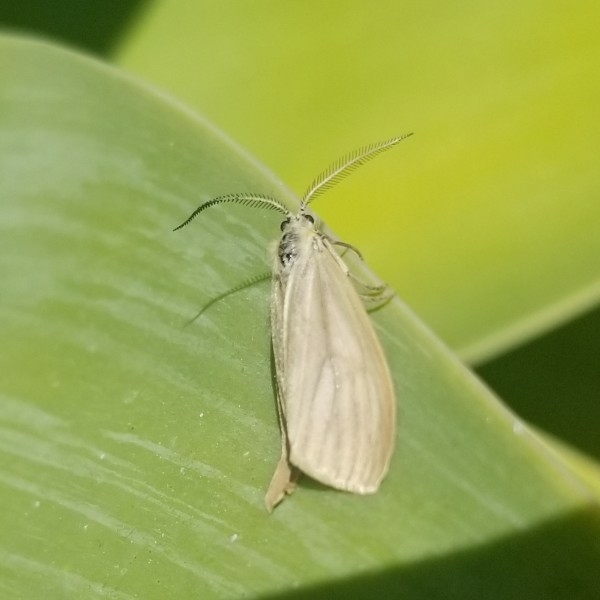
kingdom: Animalia
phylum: Arthropoda
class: Insecta
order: Lepidoptera
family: Notodontidae
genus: Phryganidia
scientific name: Phryganidia californica
